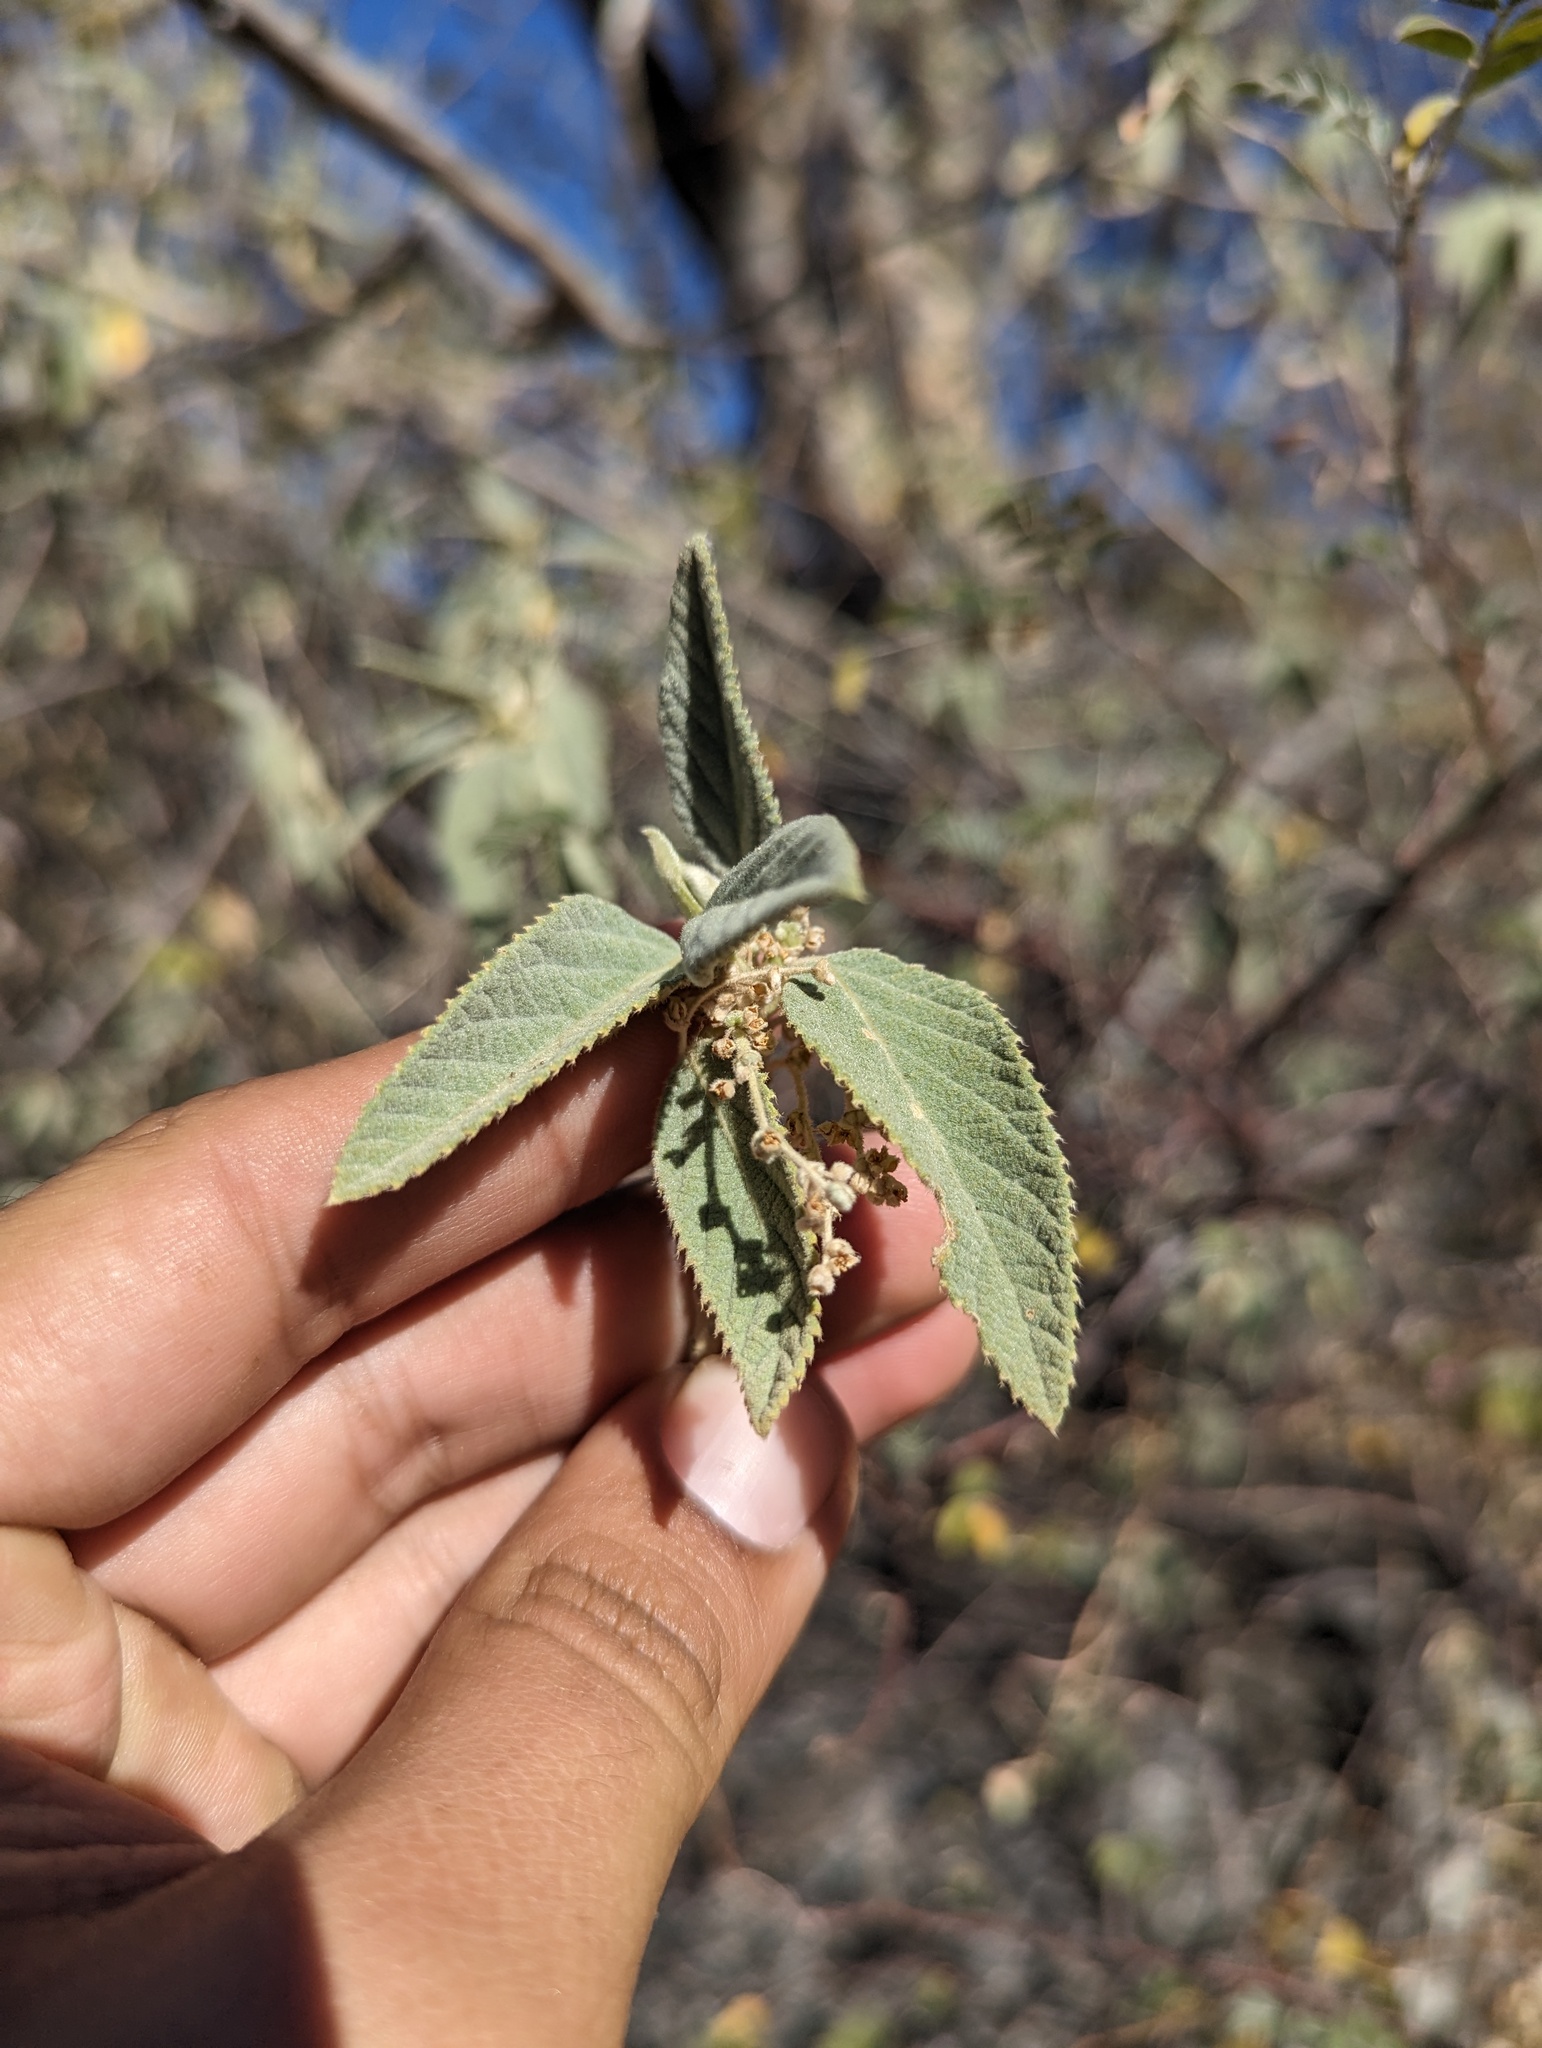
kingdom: Plantae
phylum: Tracheophyta
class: Magnoliopsida
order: Malpighiales
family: Euphorbiaceae
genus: Bernardia
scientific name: Bernardia lagunensis
